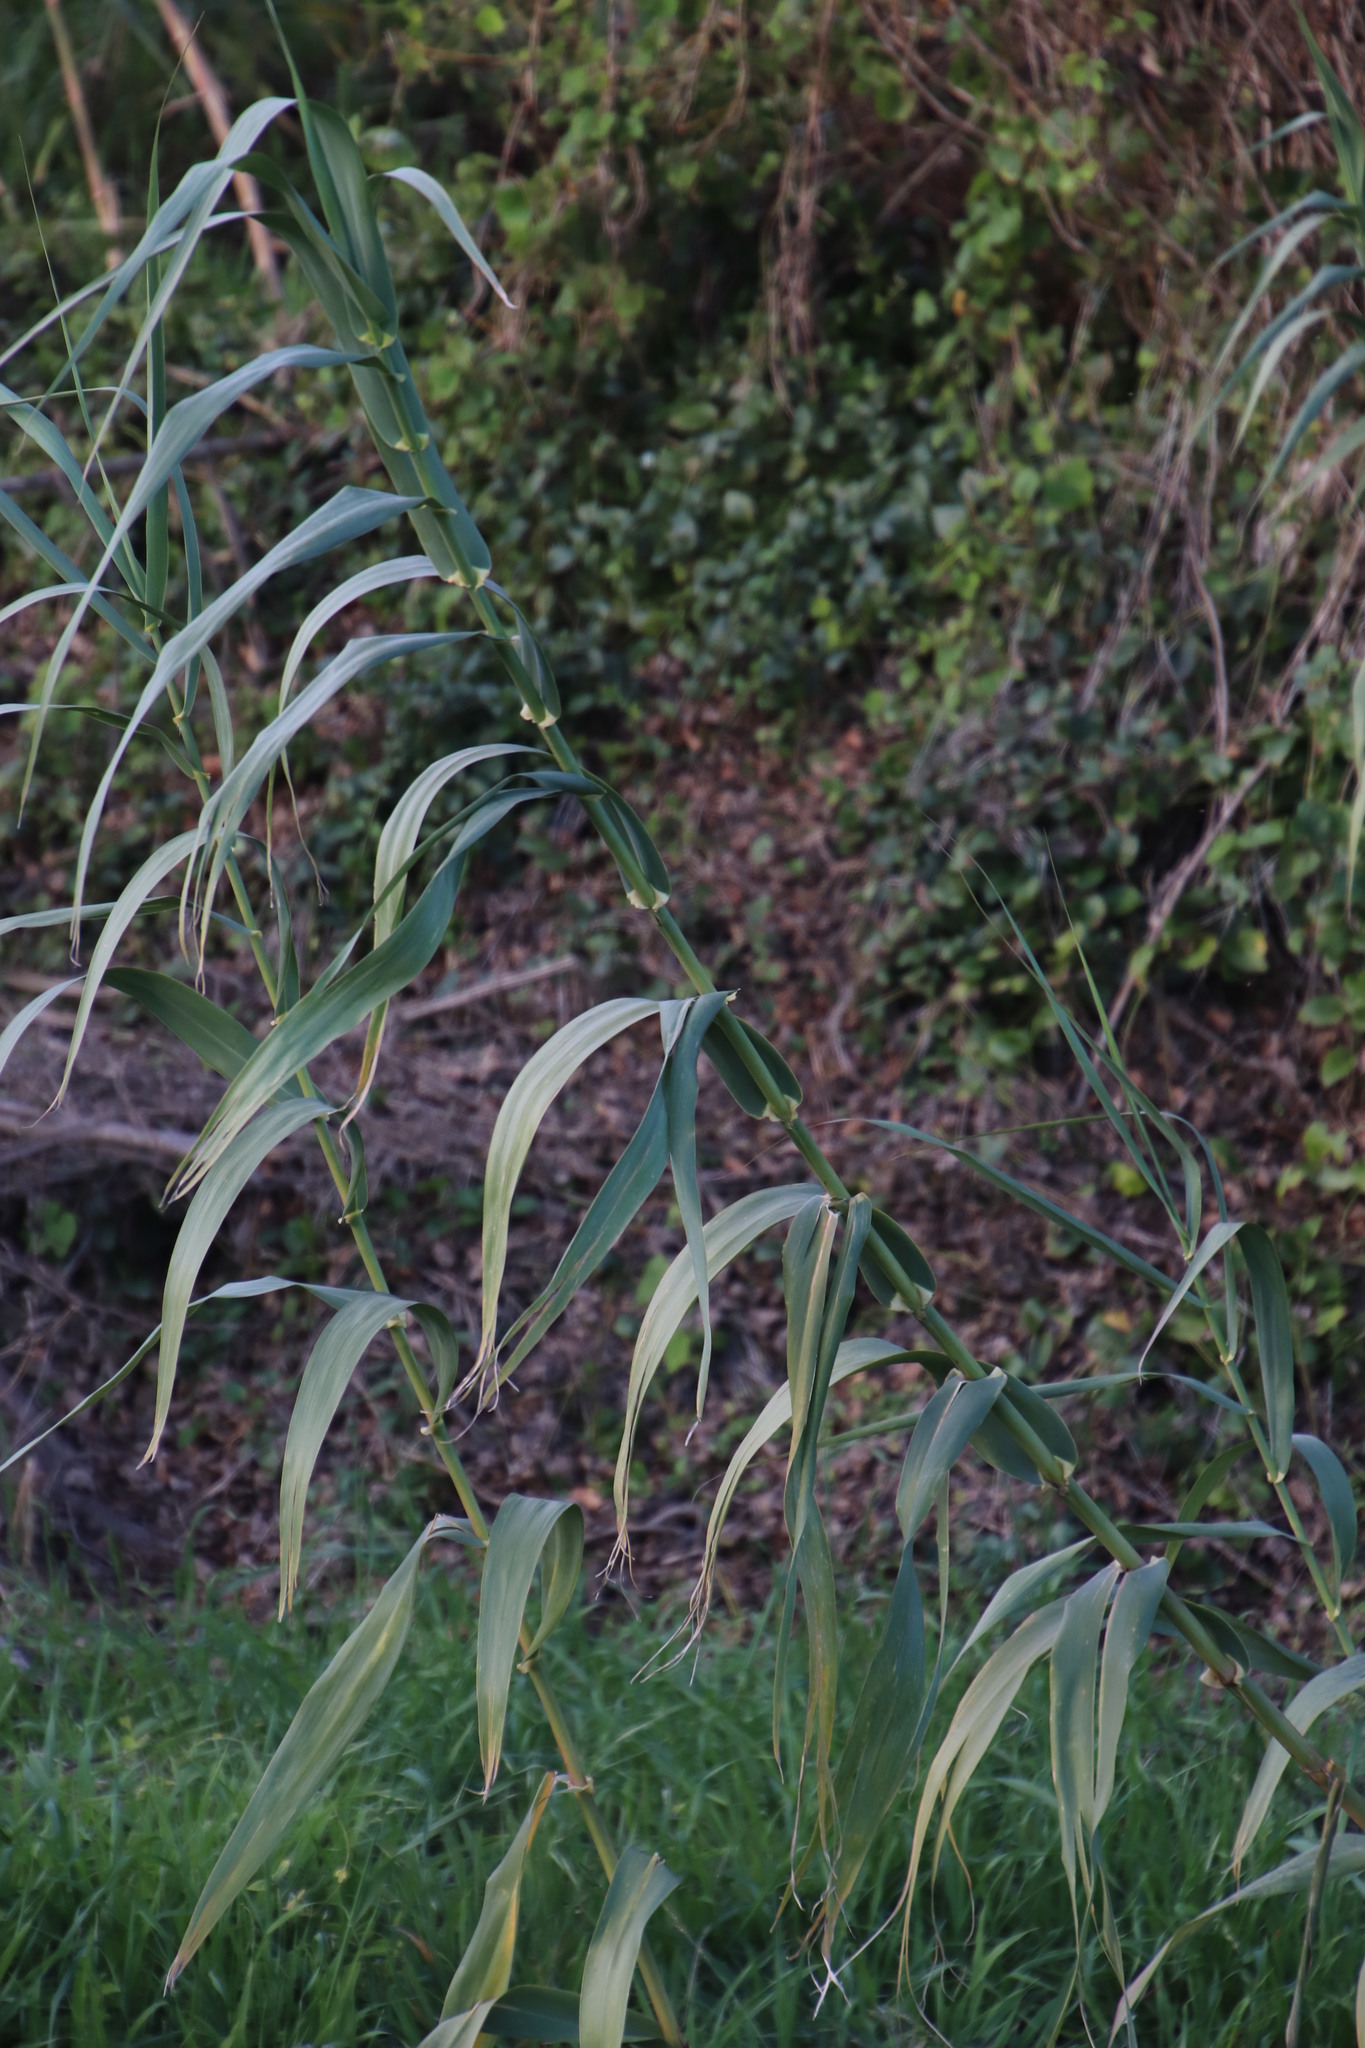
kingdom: Plantae
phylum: Tracheophyta
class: Liliopsida
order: Poales
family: Poaceae
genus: Arundo
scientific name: Arundo donax
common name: Giant reed
